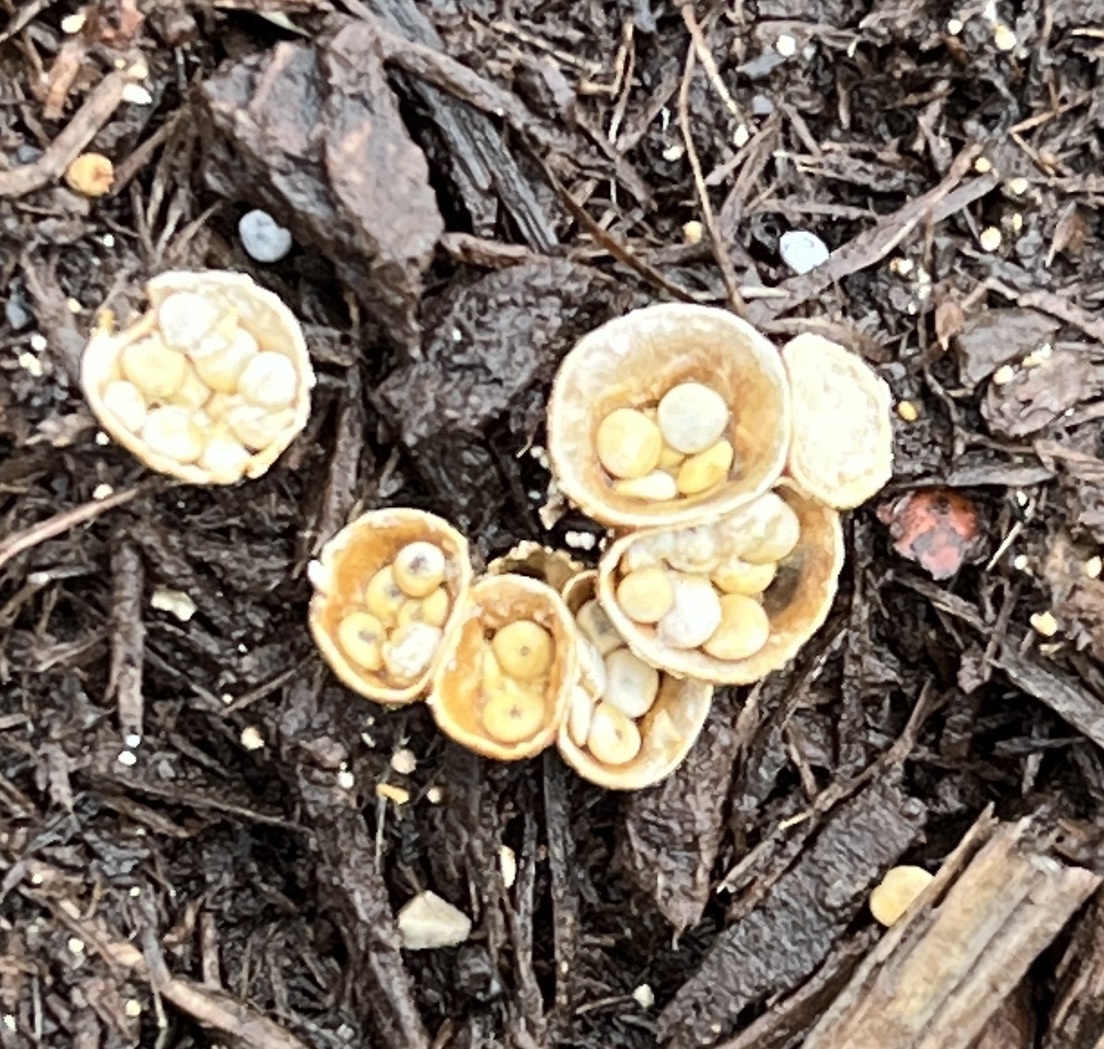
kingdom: Fungi
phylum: Basidiomycota
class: Agaricomycetes
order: Agaricales
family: Nidulariaceae
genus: Crucibulum
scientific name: Crucibulum laeve
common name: Common bird's nest
